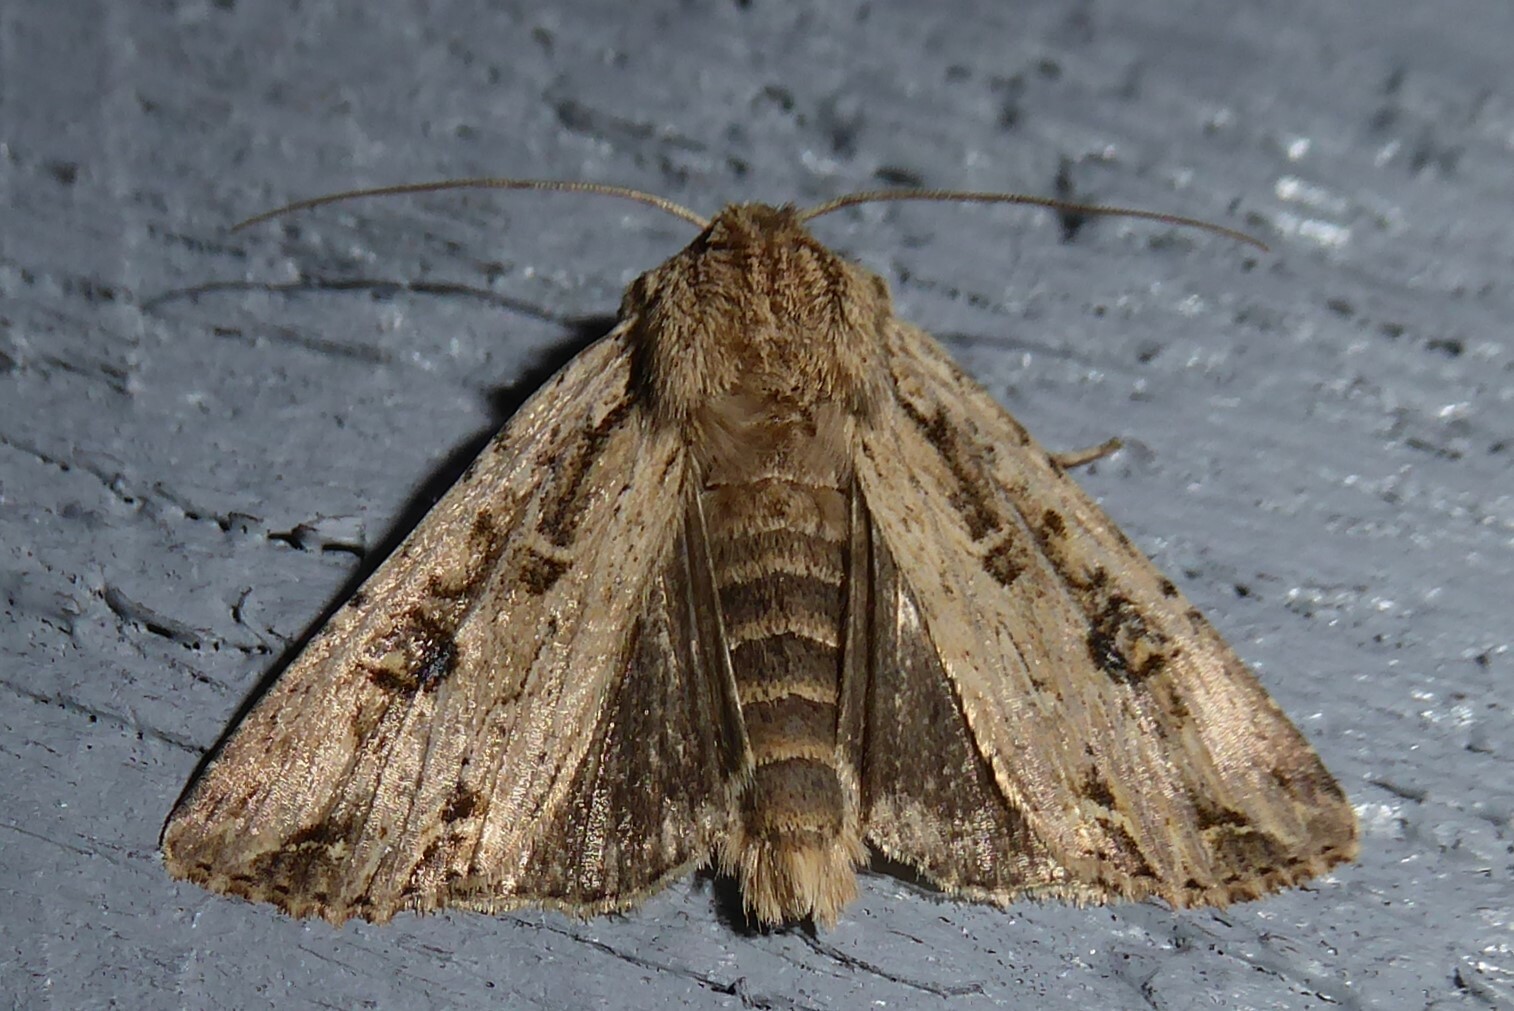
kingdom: Animalia
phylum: Arthropoda
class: Insecta
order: Lepidoptera
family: Noctuidae
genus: Ichneutica
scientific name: Ichneutica lignana
